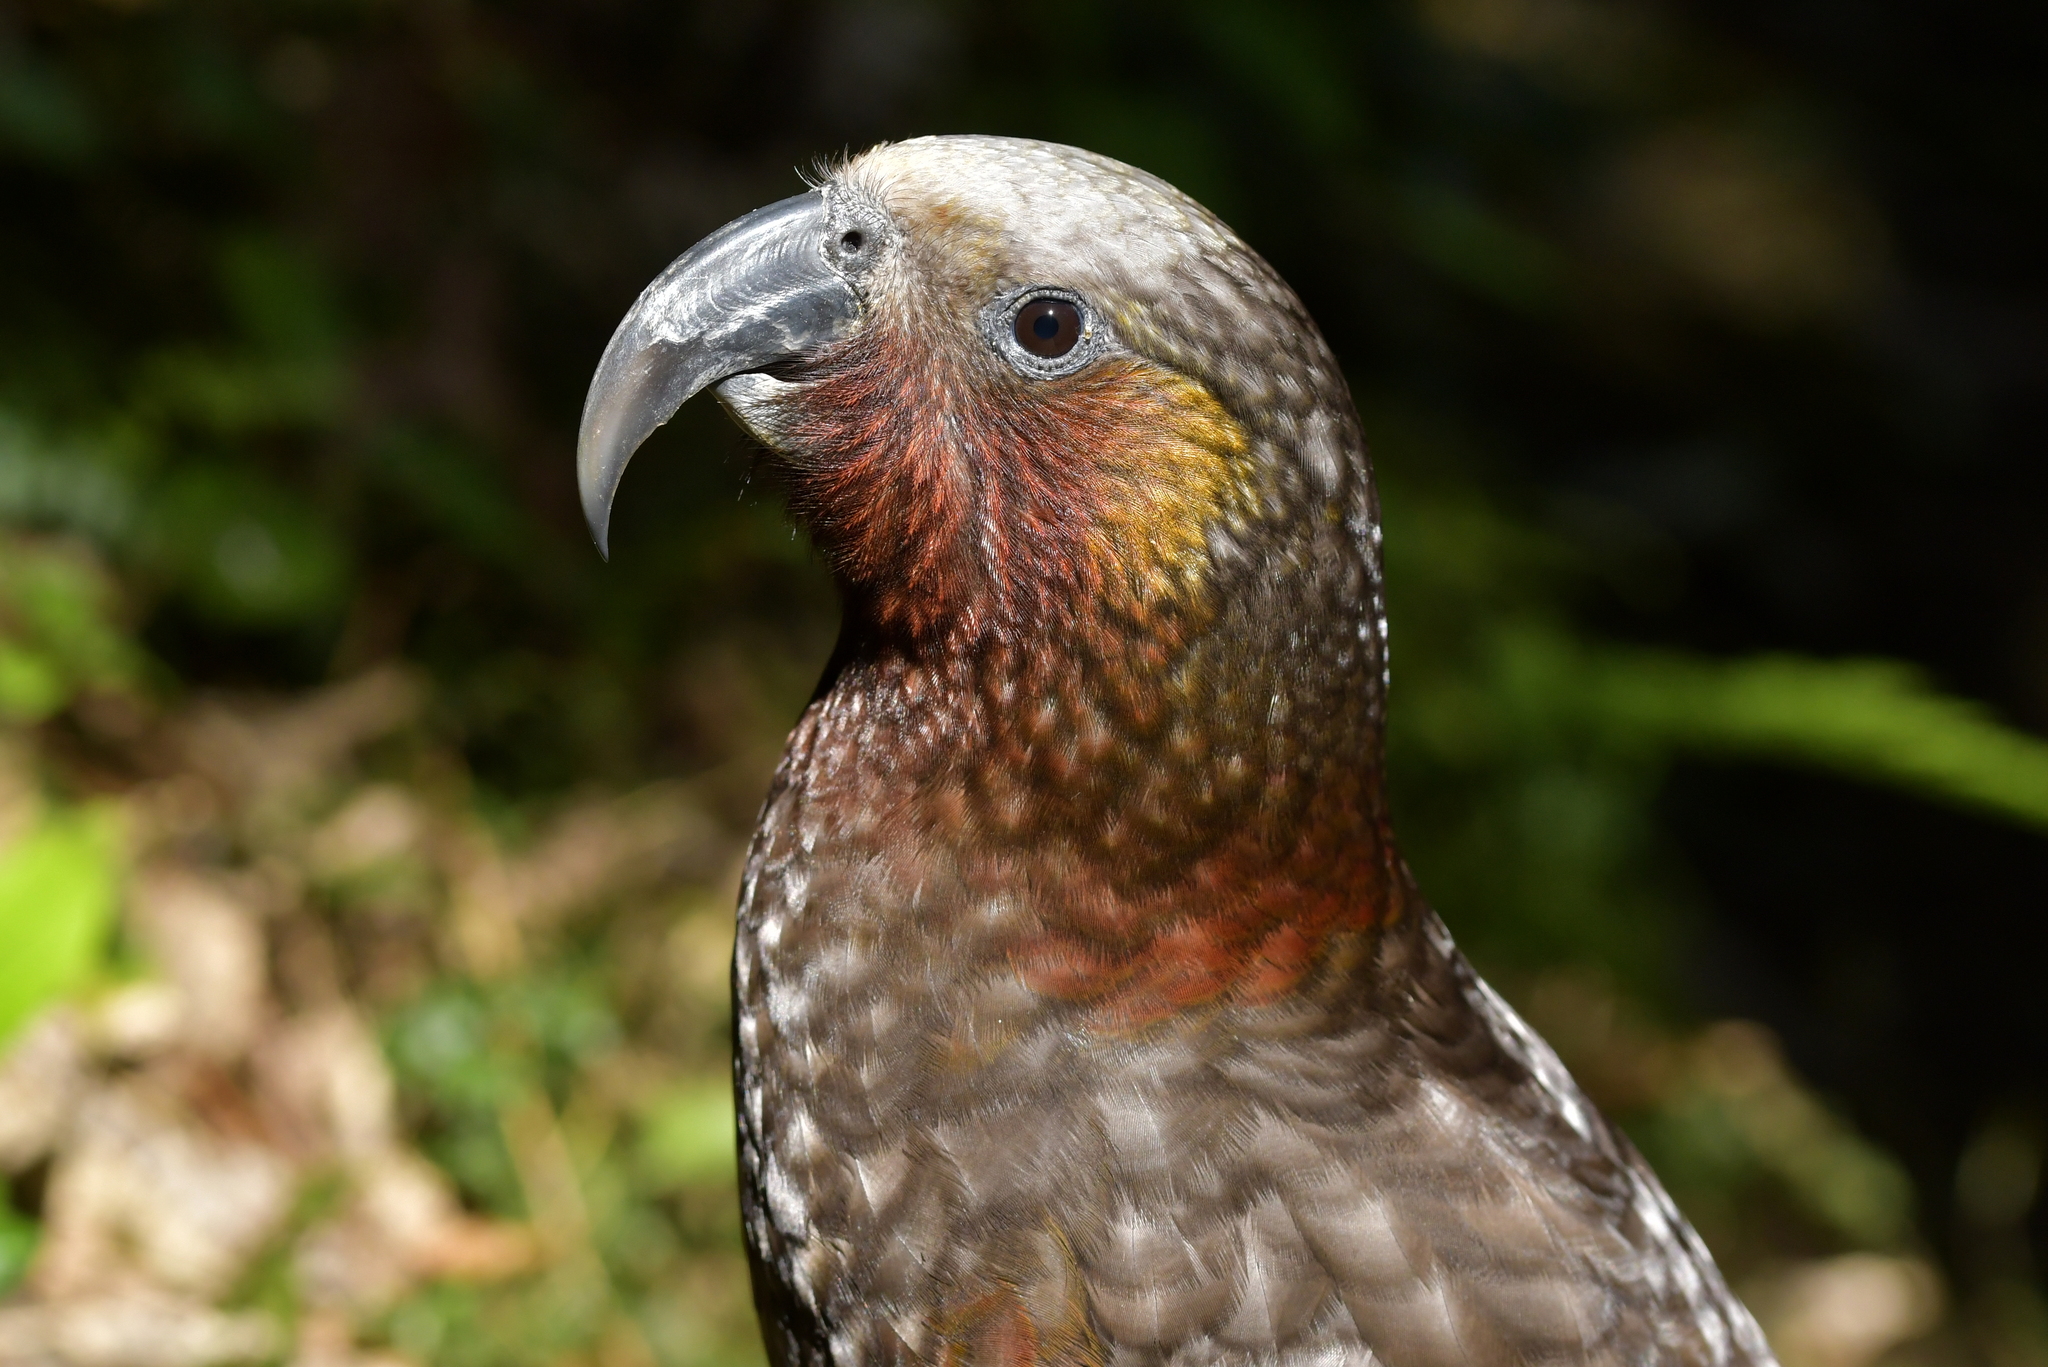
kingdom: Animalia
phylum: Chordata
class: Aves
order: Psittaciformes
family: Psittacidae
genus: Nestor
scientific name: Nestor meridionalis
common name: New zealand kaka
